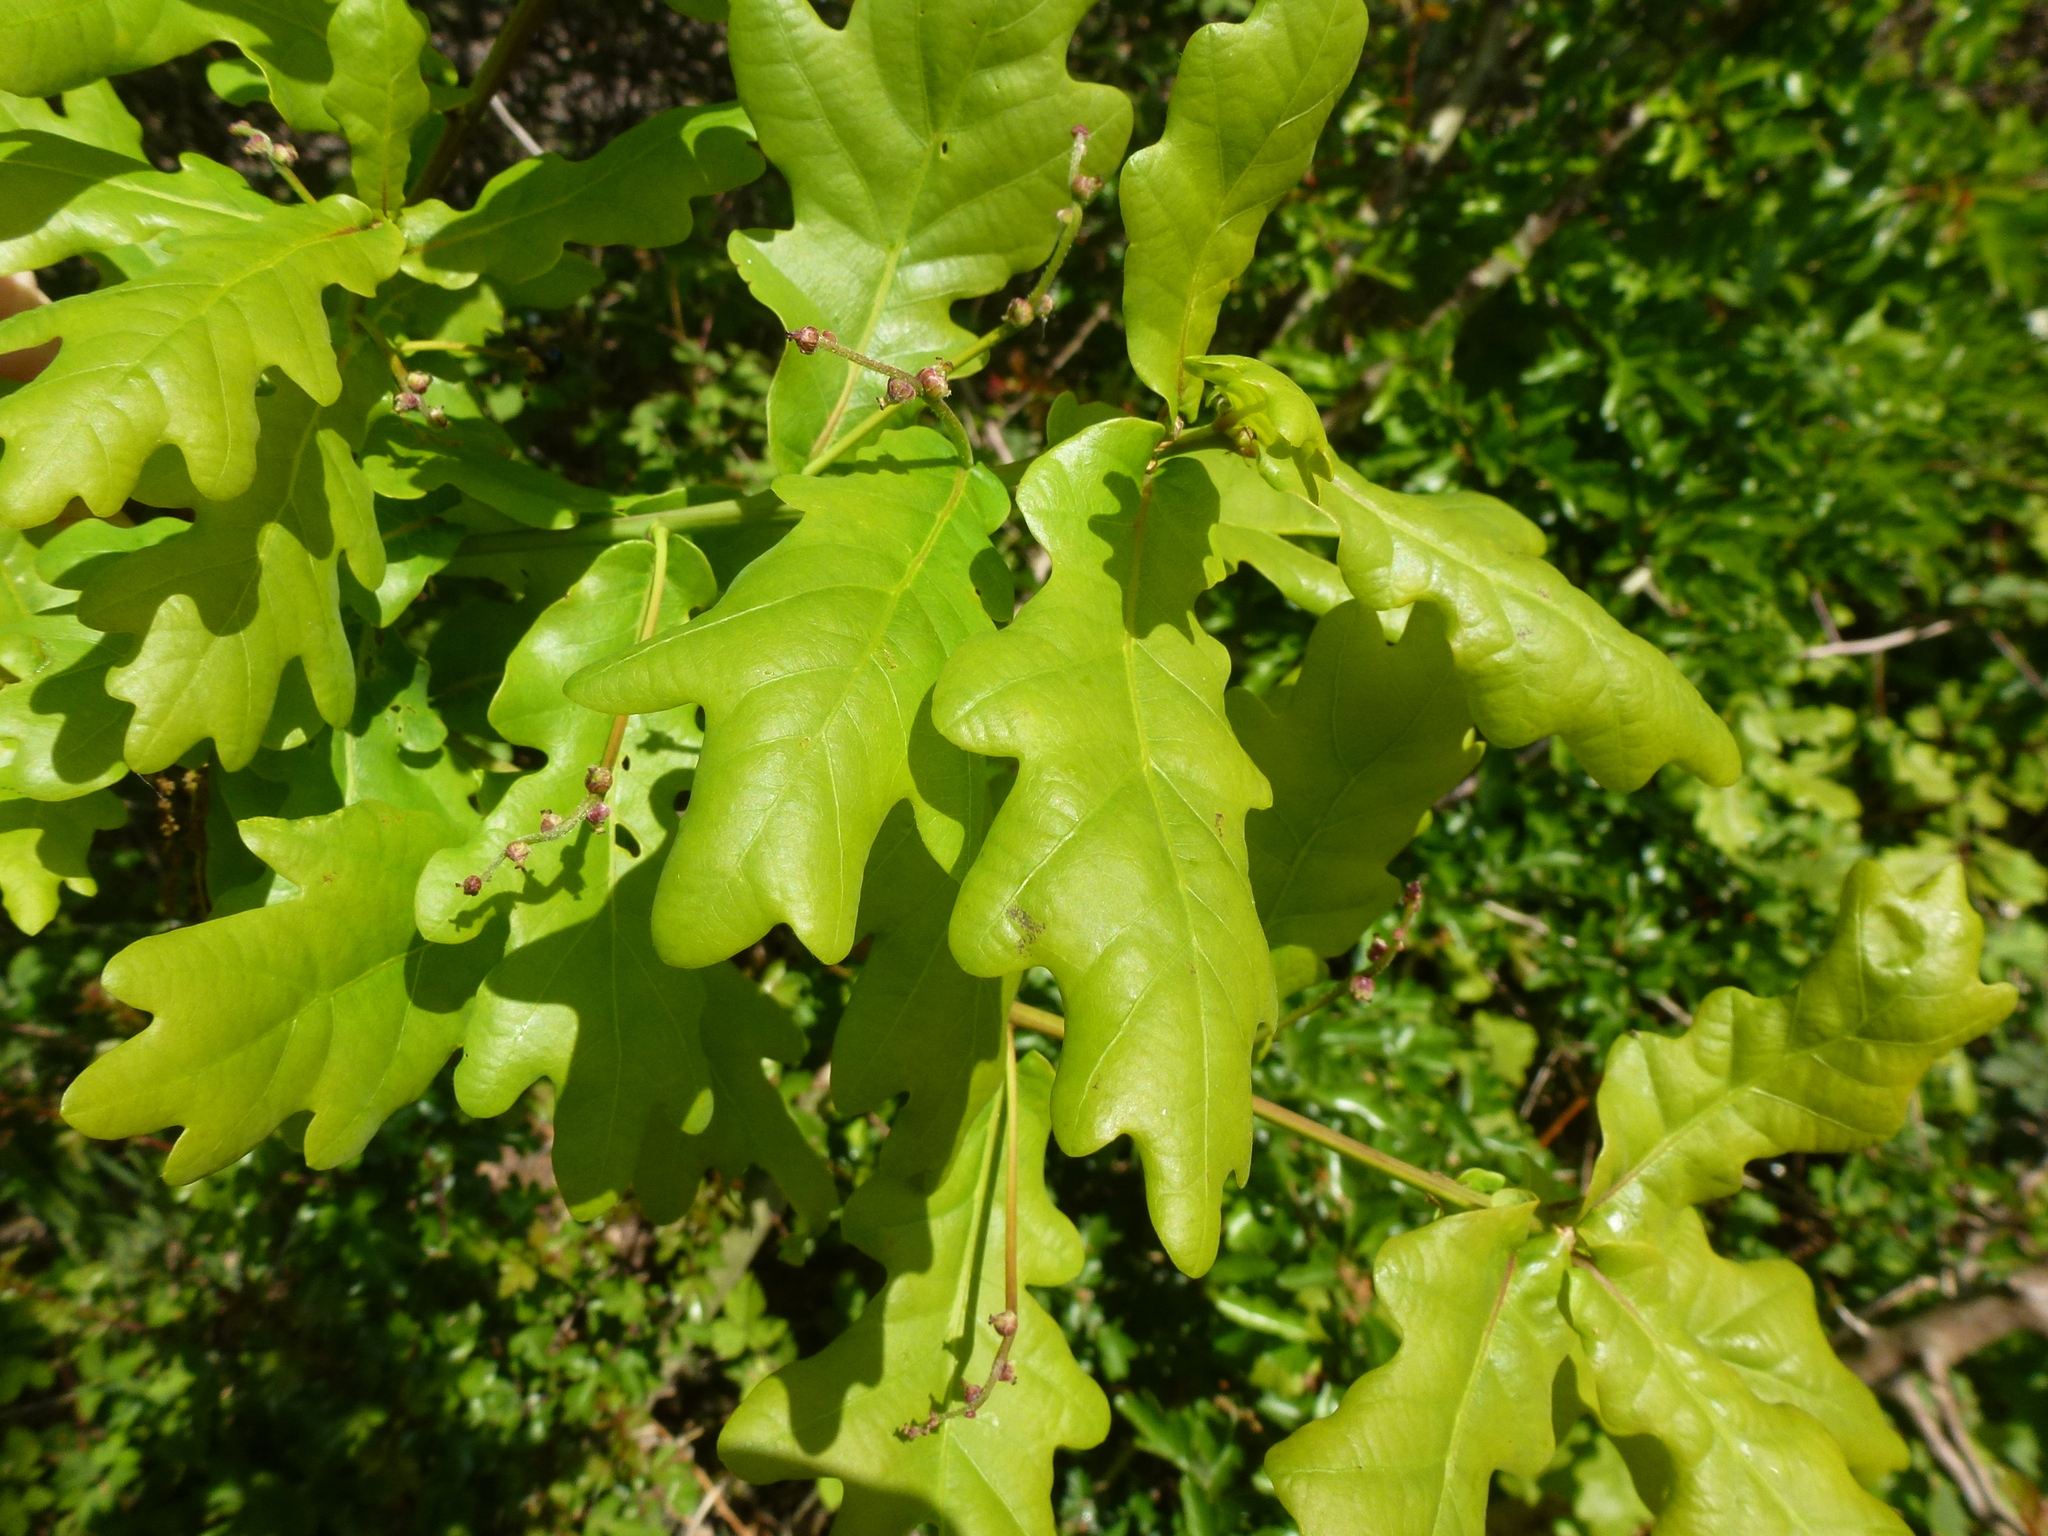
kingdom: Plantae
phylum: Tracheophyta
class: Magnoliopsida
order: Fagales
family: Fagaceae
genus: Quercus
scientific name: Quercus robur
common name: Pedunculate oak
